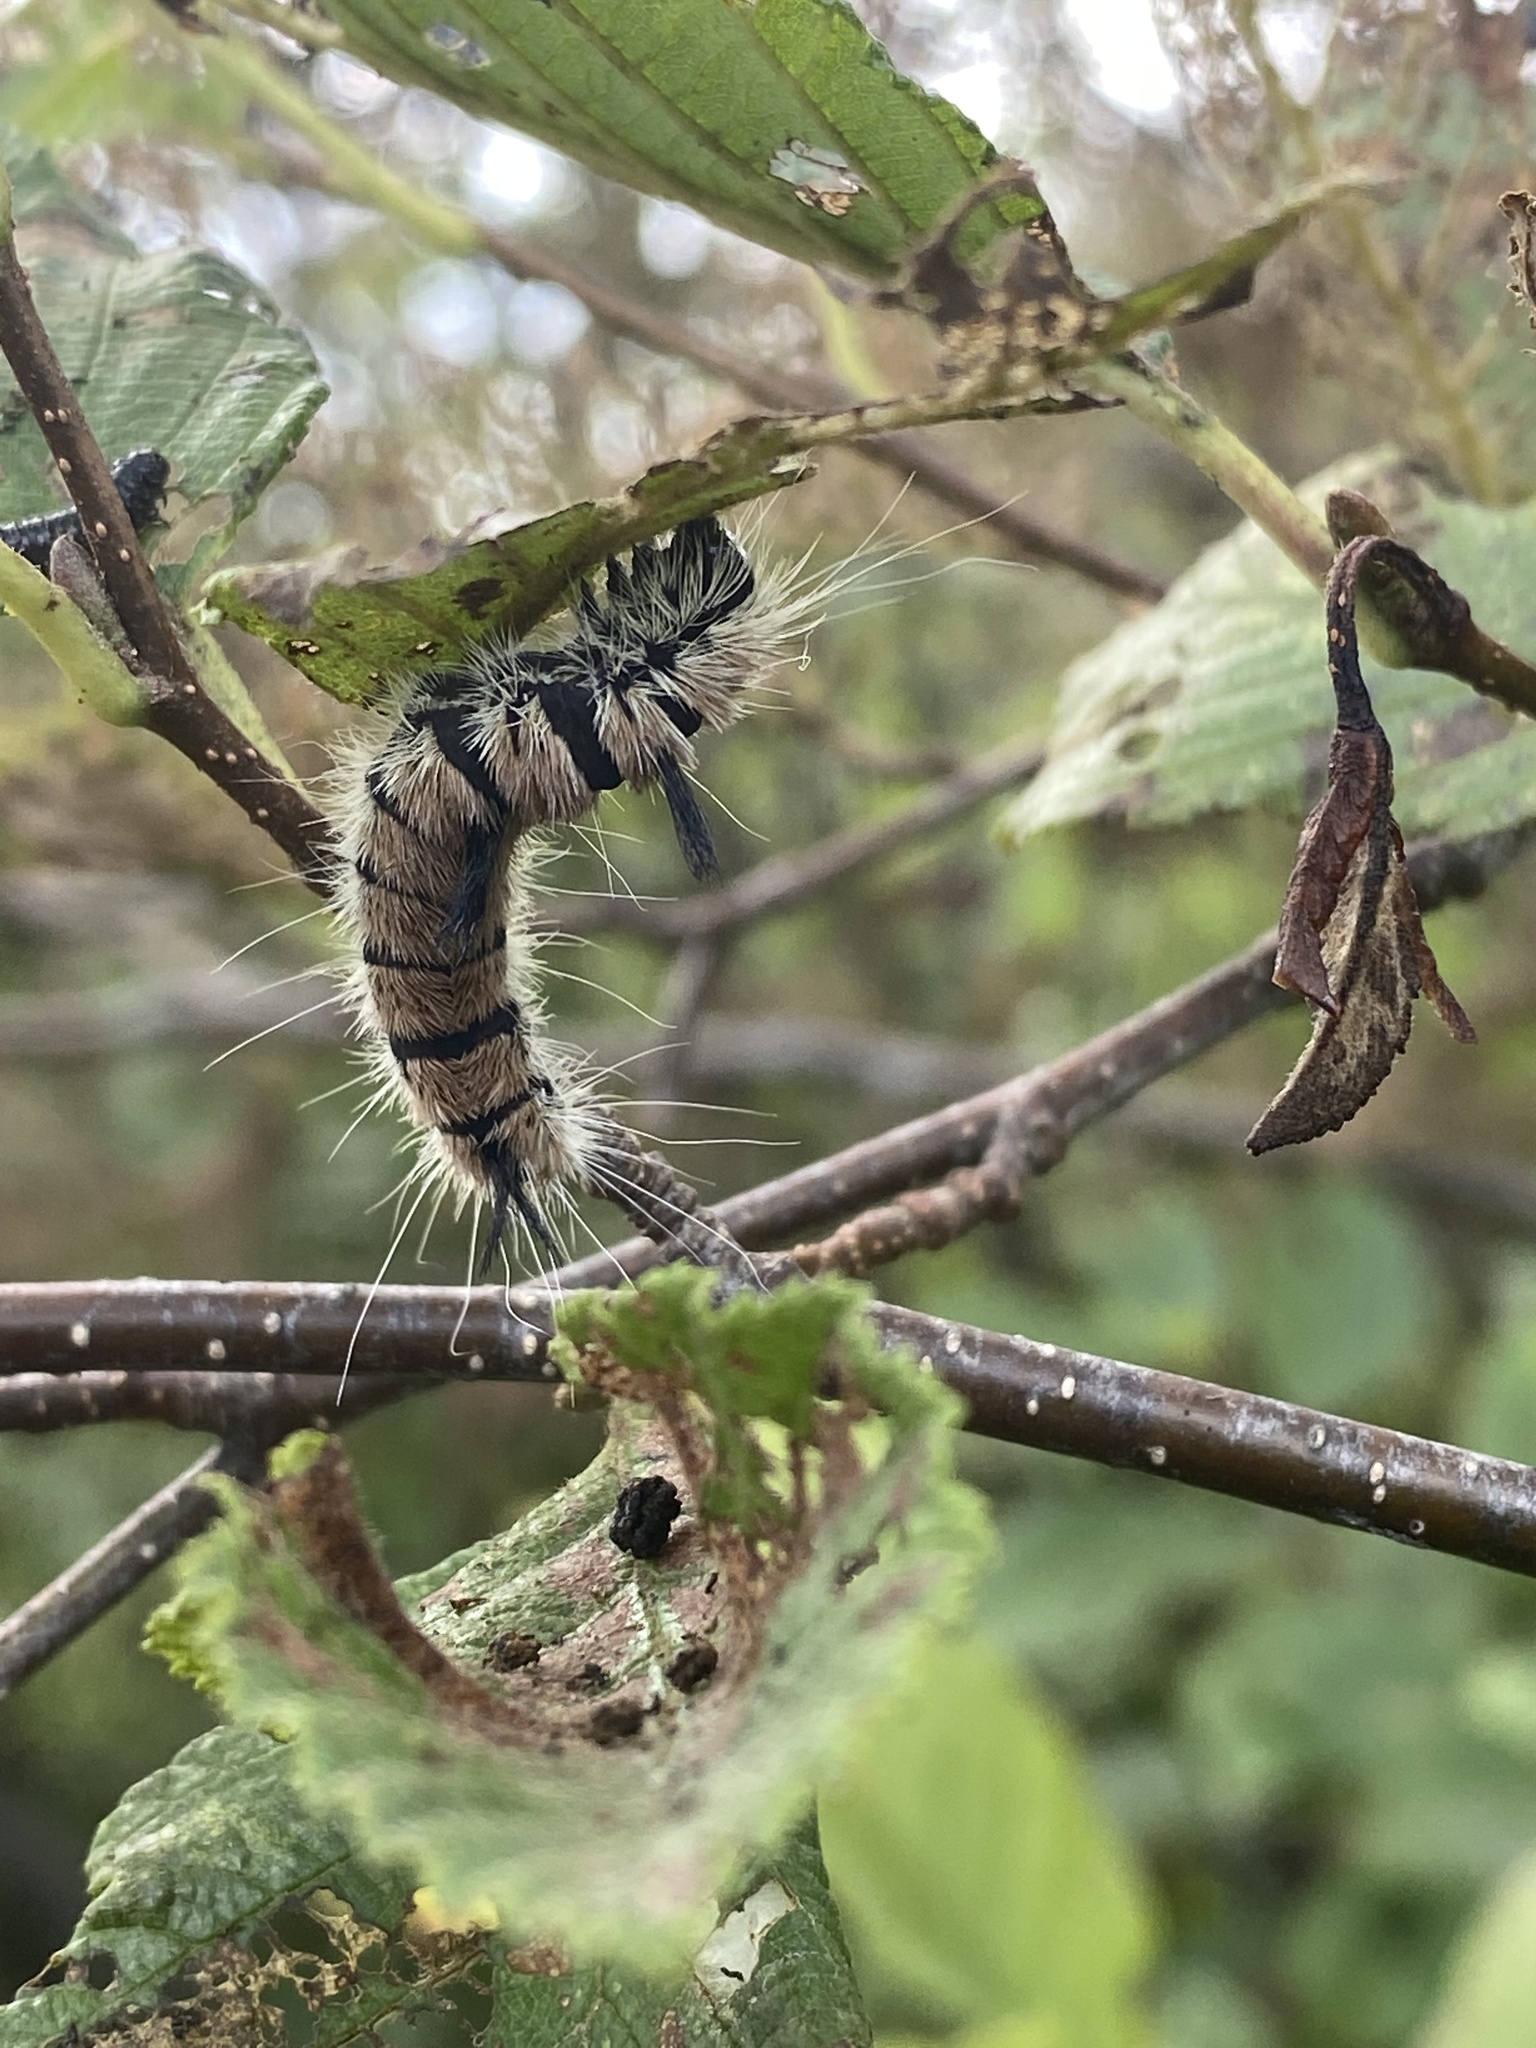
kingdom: Animalia
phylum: Arthropoda
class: Insecta
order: Lepidoptera
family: Noctuidae
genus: Acronicta
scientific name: Acronicta insita
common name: Large gray dagger
